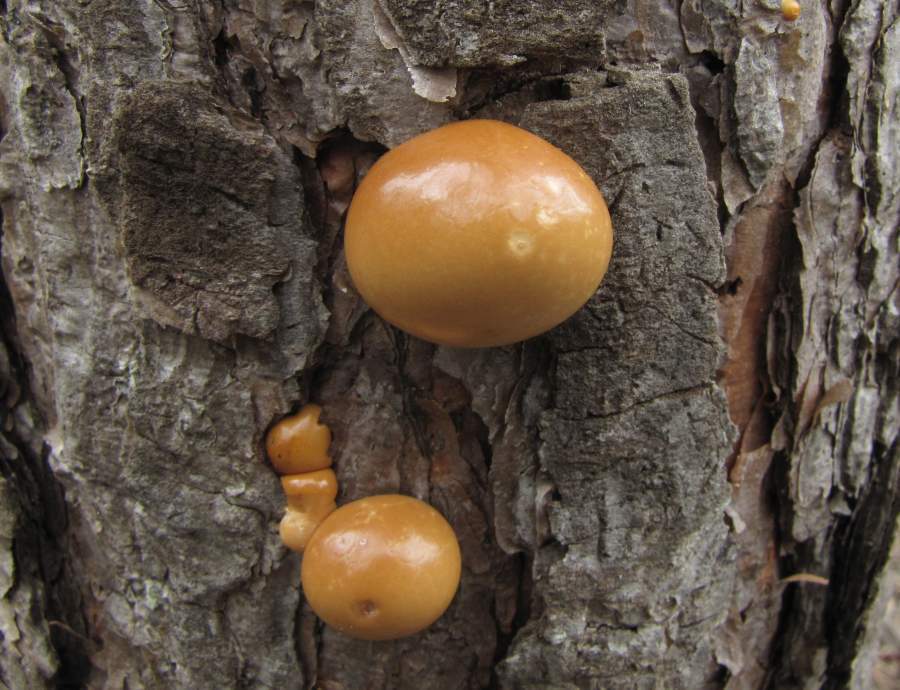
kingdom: Fungi
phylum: Basidiomycota
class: Agaricomycetes
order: Polyporales
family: Polyporaceae
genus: Cryptoporus
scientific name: Cryptoporus volvatus
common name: Veiled polypore
